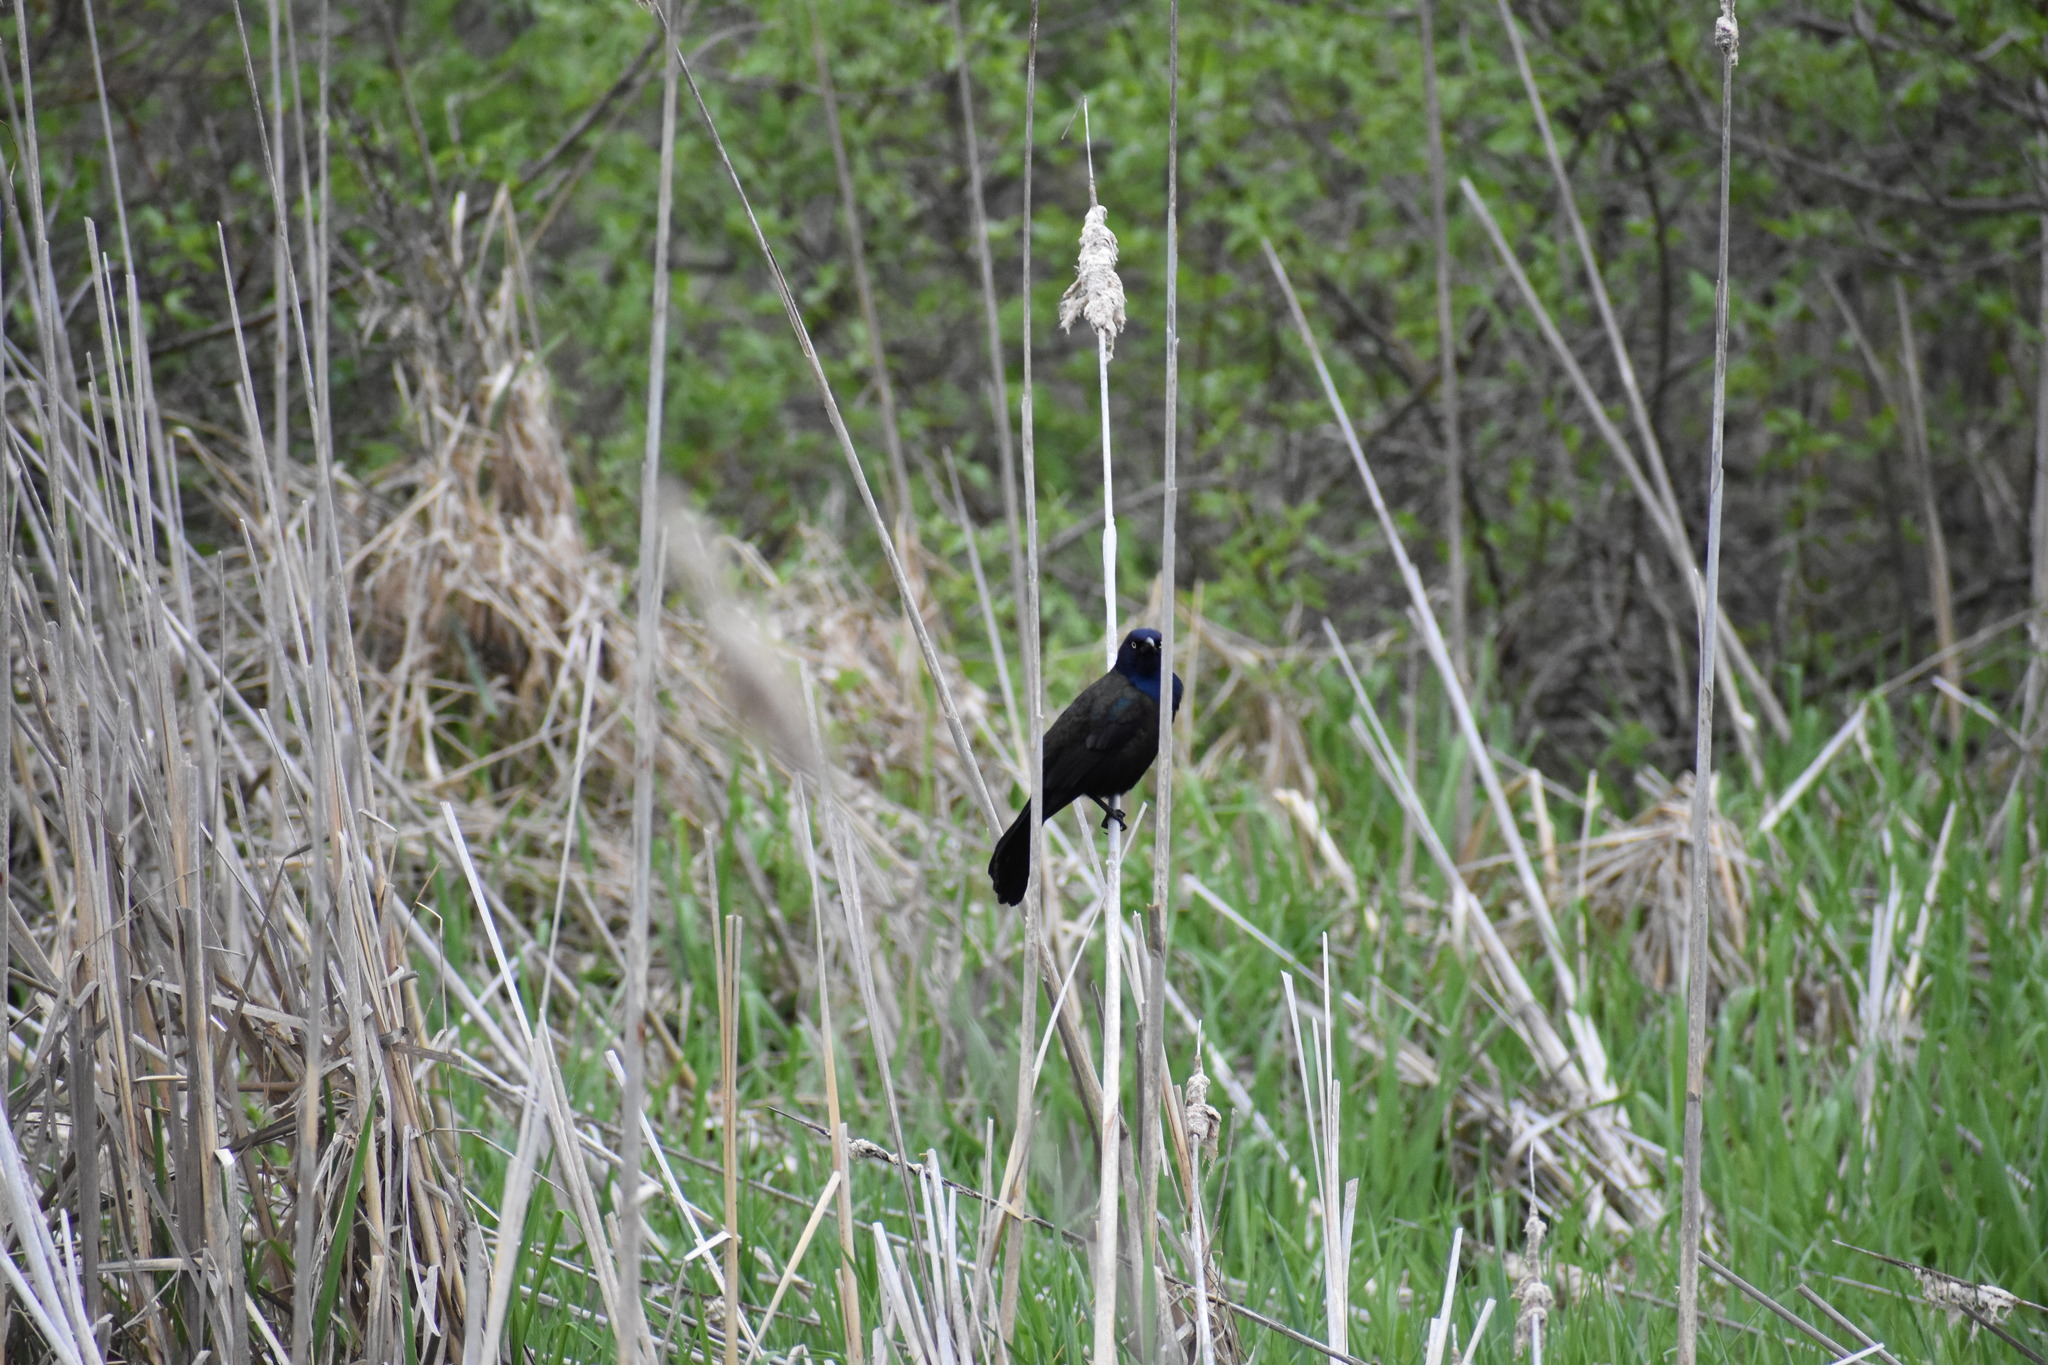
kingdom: Animalia
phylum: Chordata
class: Aves
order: Passeriformes
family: Icteridae
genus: Quiscalus
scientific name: Quiscalus quiscula
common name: Common grackle
